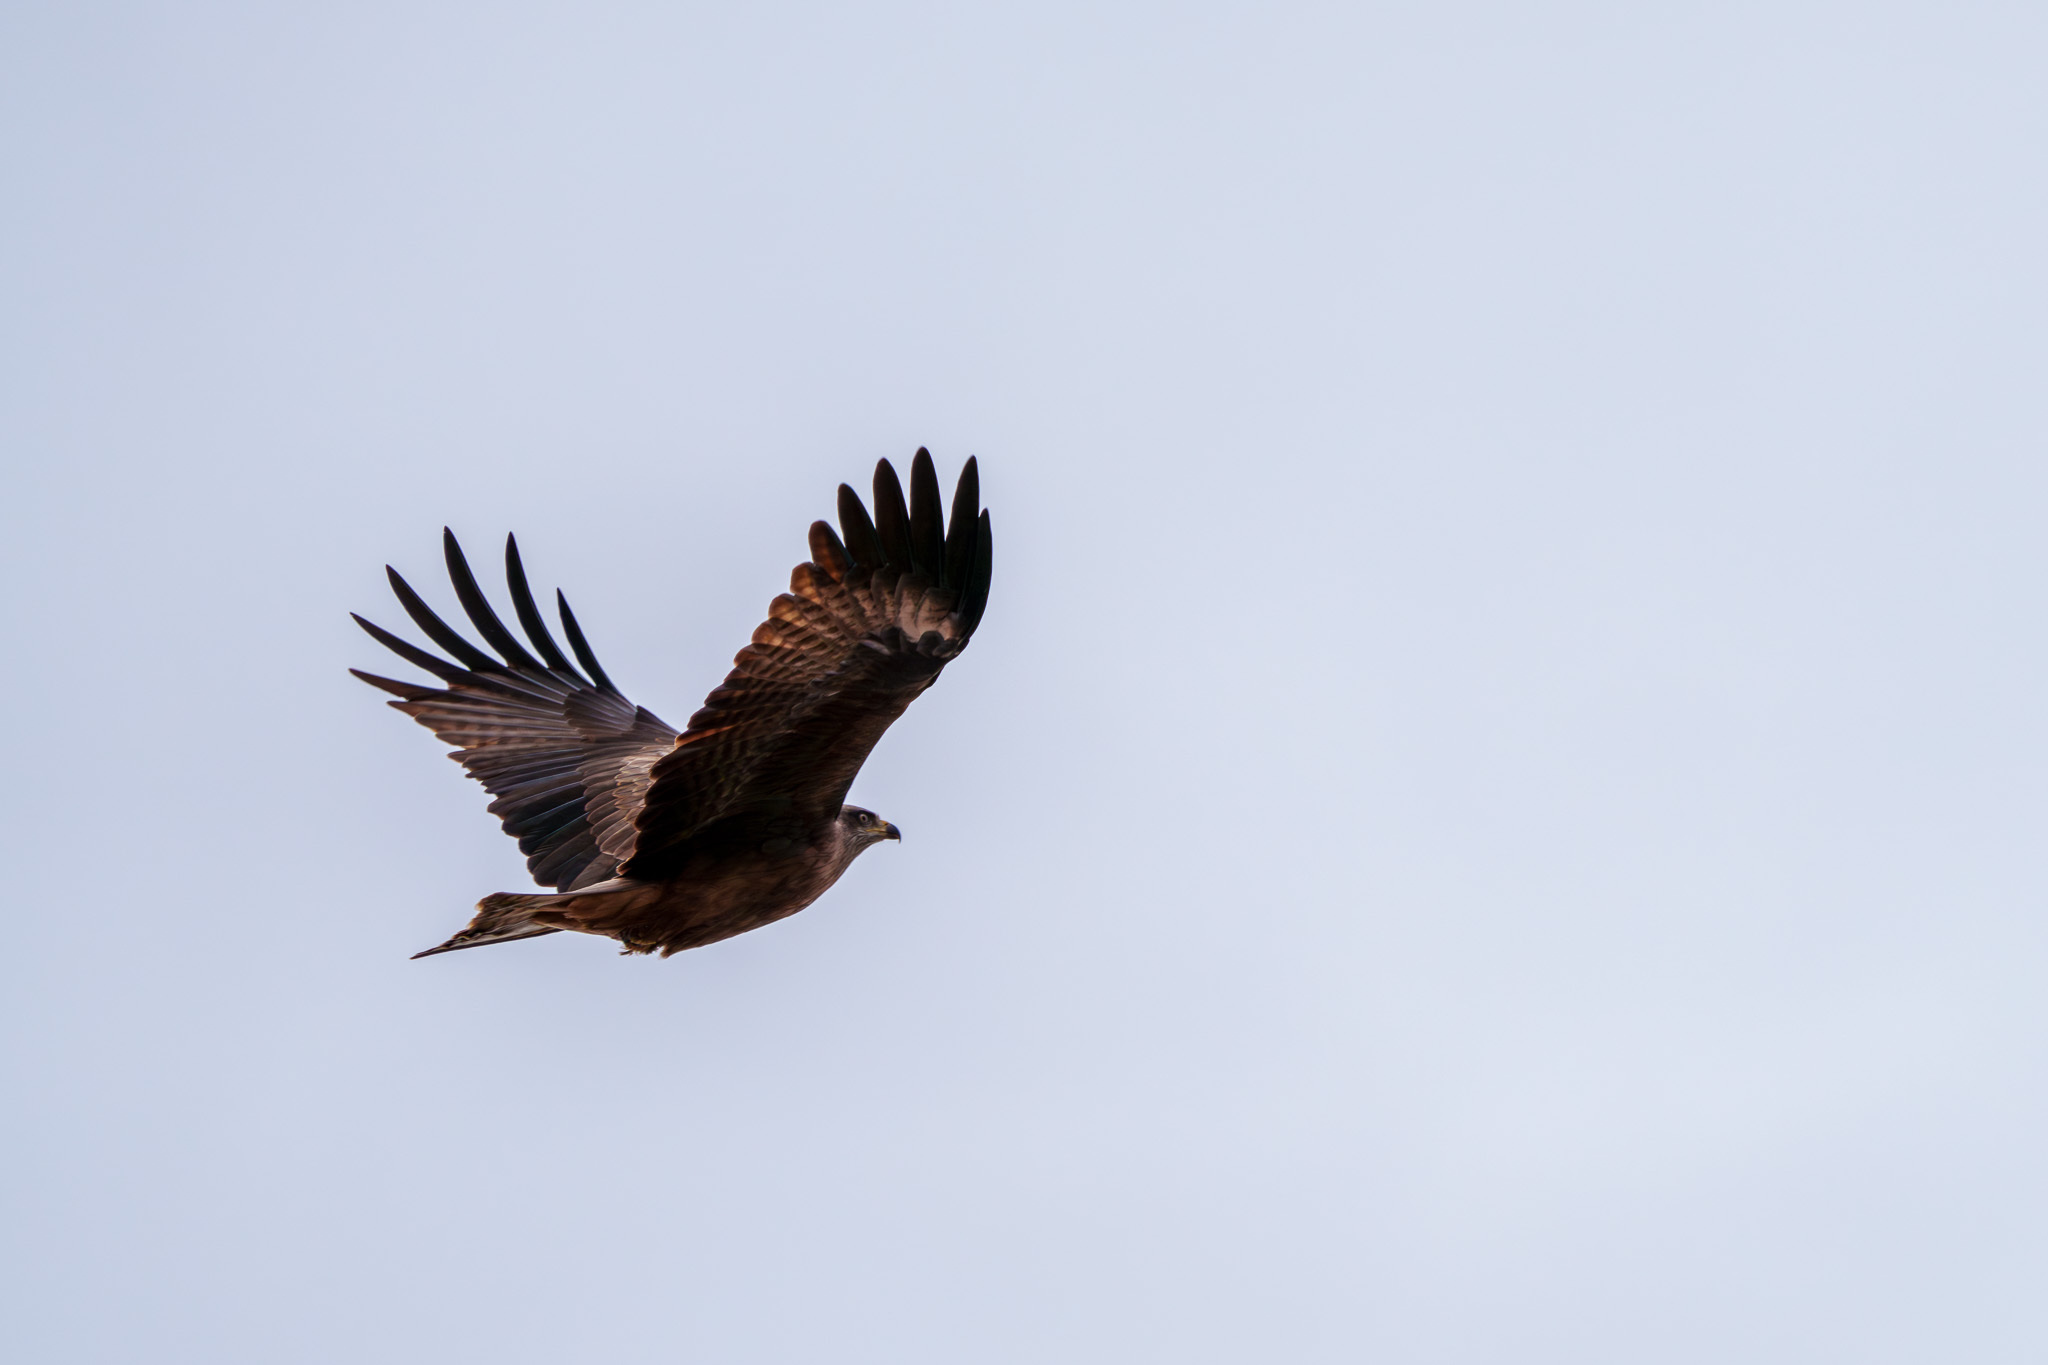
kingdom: Animalia
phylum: Chordata
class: Aves
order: Accipitriformes
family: Accipitridae
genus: Milvus
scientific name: Milvus migrans
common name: Black kite
